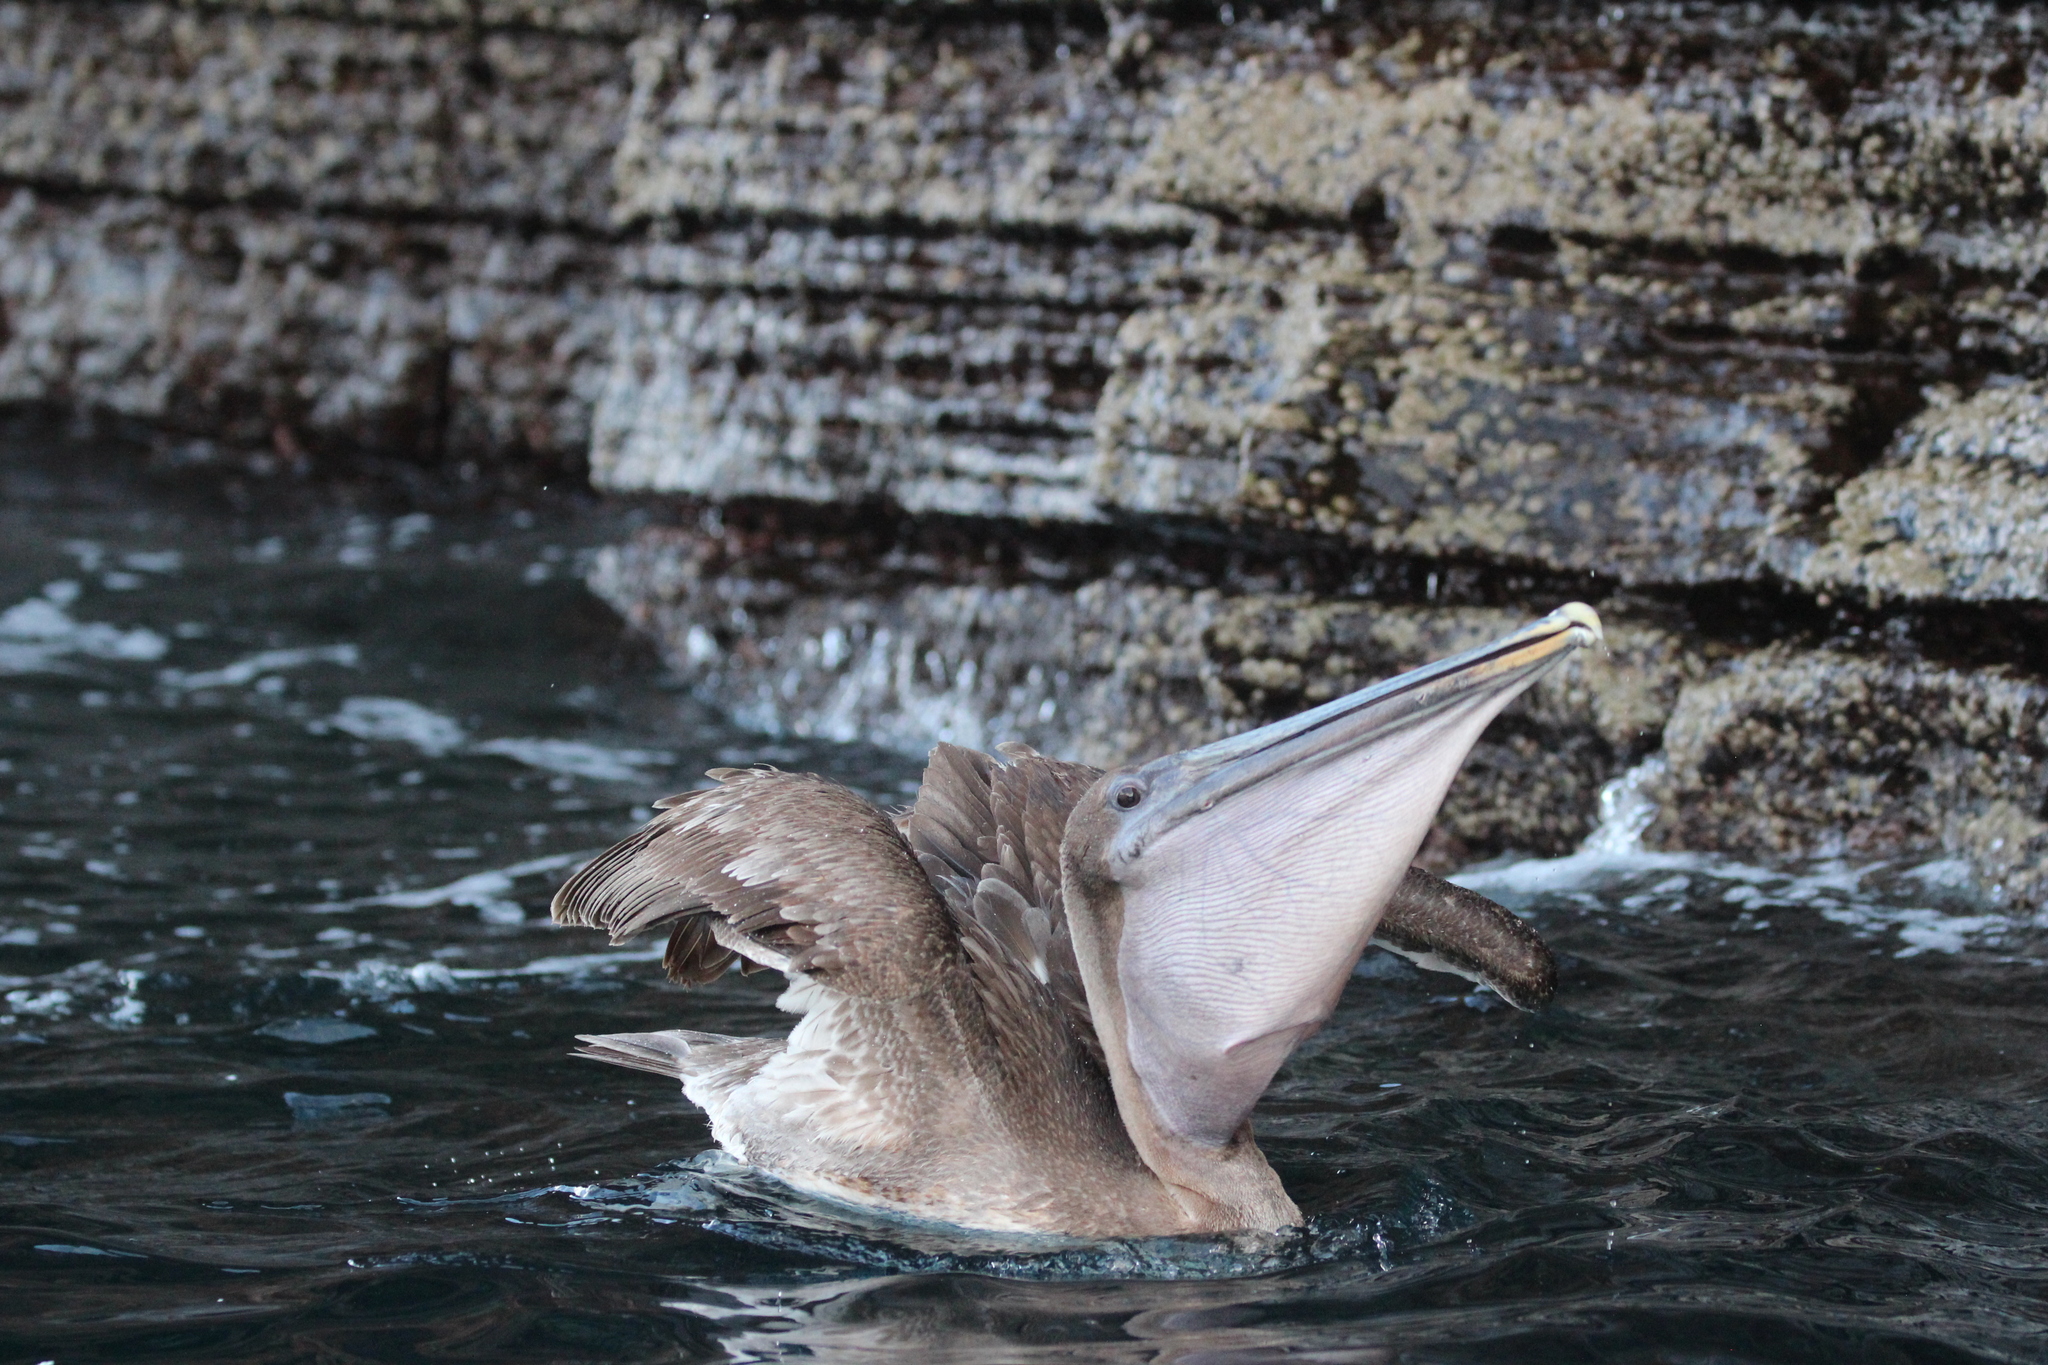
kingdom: Animalia
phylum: Chordata
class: Aves
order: Pelecaniformes
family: Pelecanidae
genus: Pelecanus
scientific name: Pelecanus occidentalis
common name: Brown pelican
